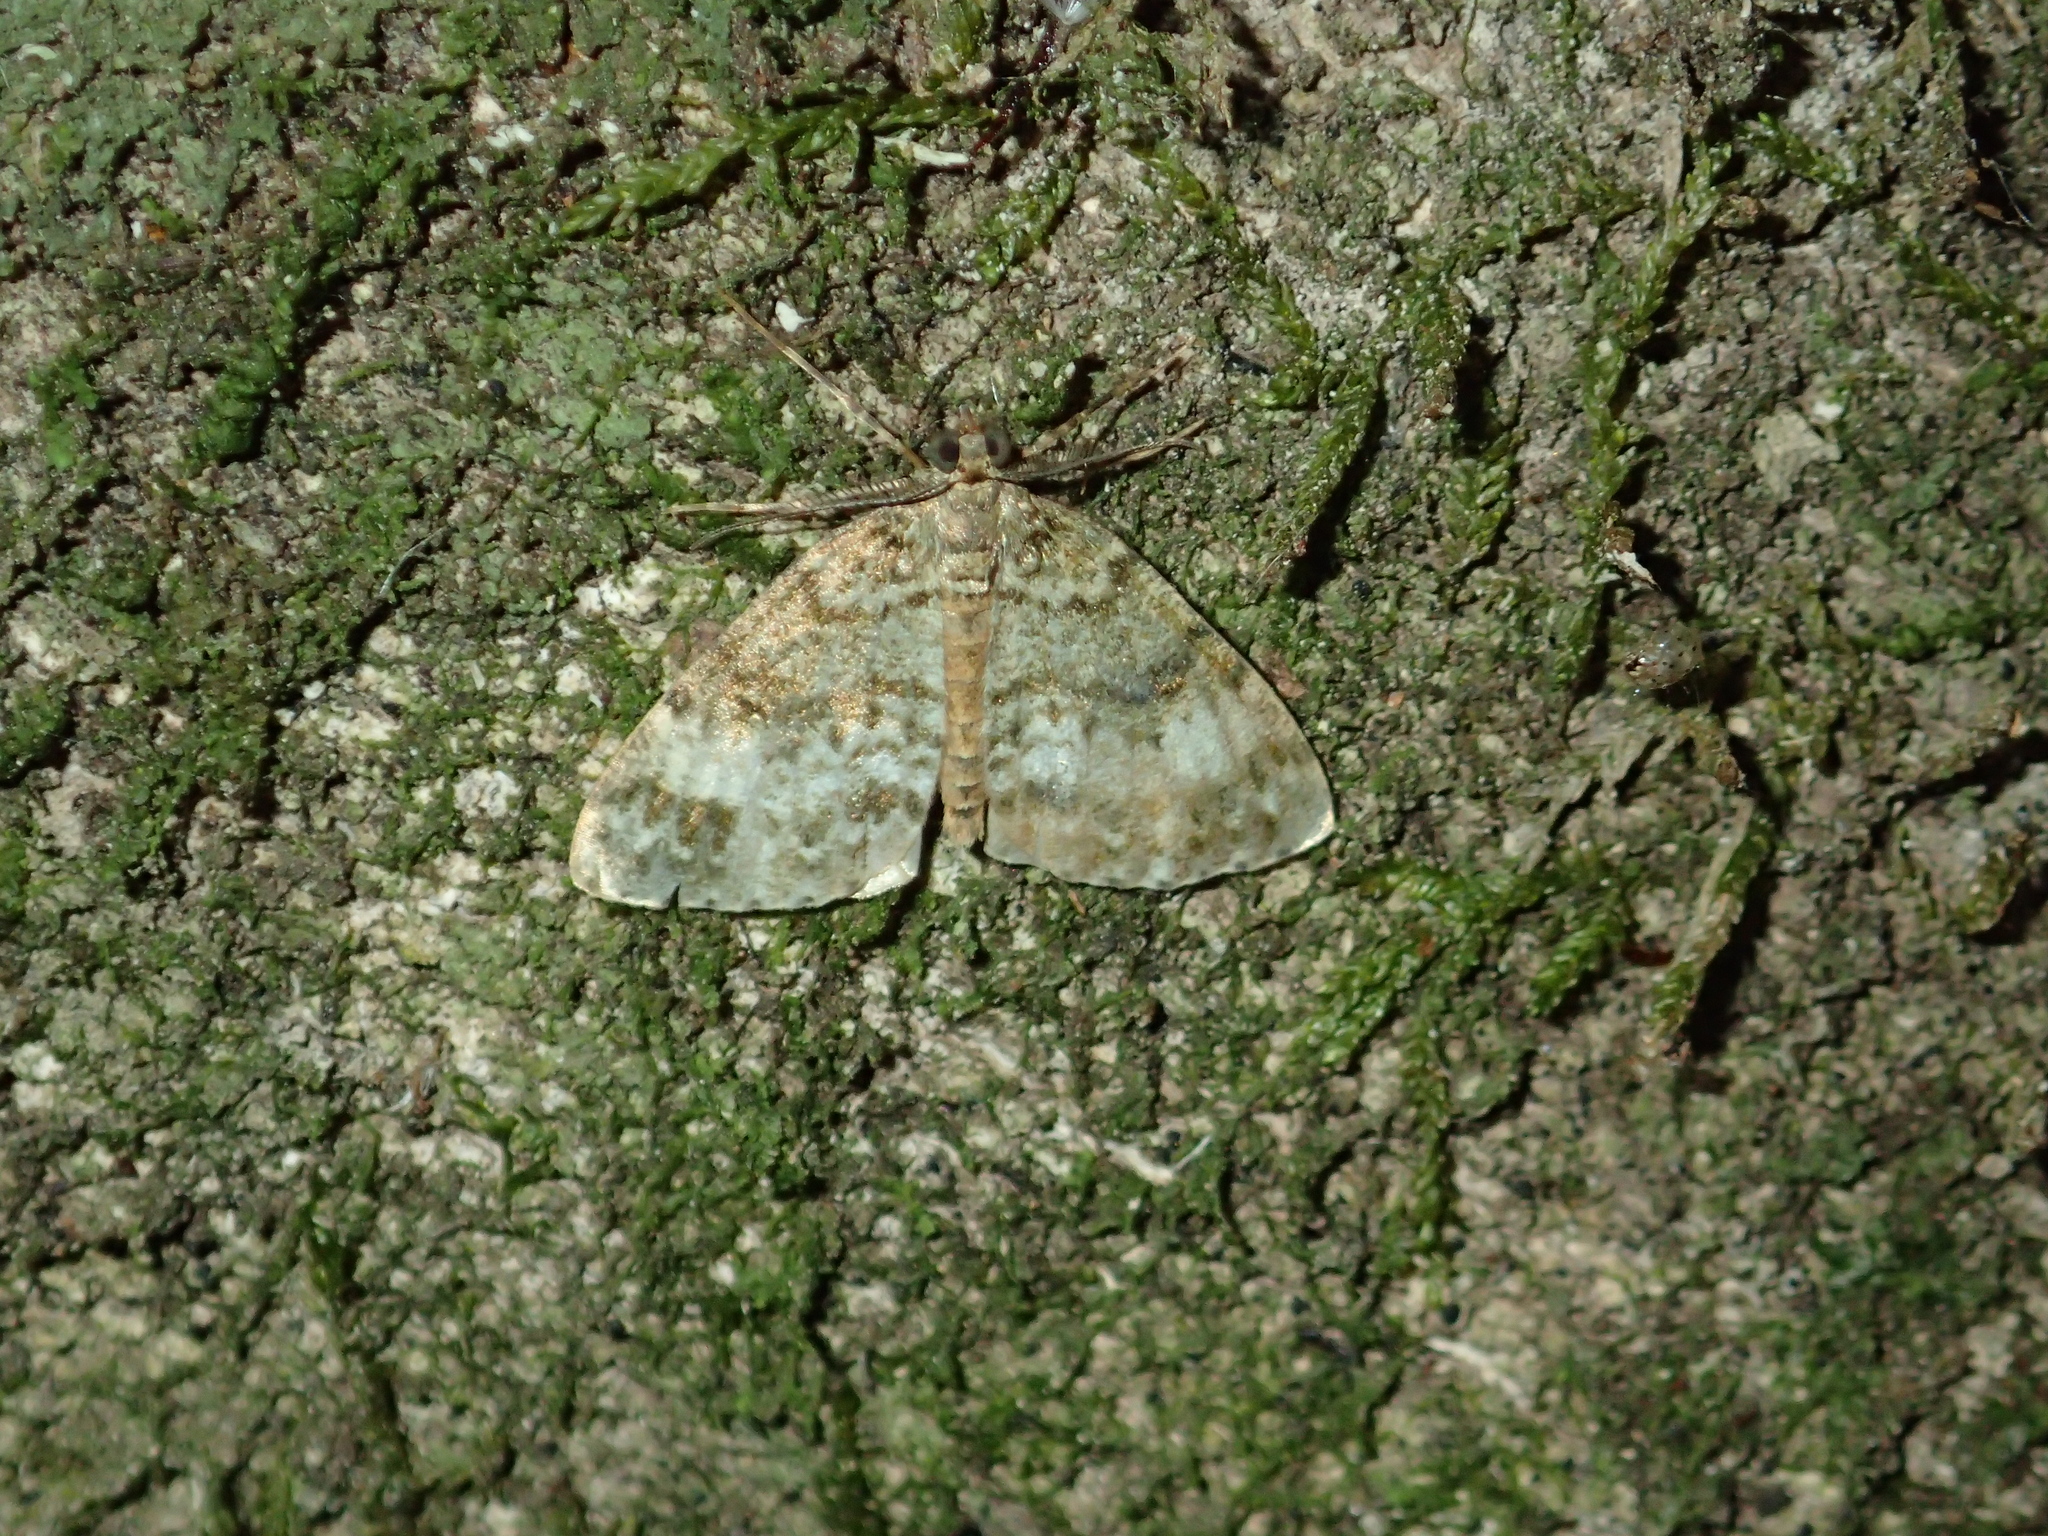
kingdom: Animalia
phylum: Arthropoda
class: Insecta
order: Lepidoptera
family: Geometridae
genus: Pseudocoremia
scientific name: Pseudocoremia indistincta
